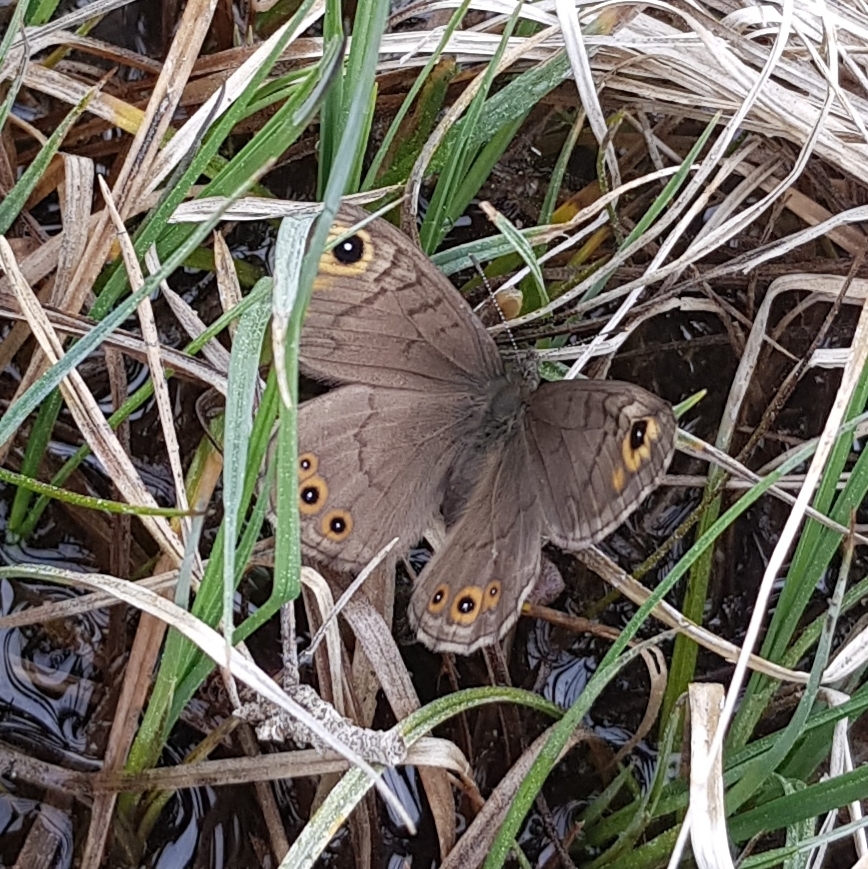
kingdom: Animalia
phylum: Arthropoda
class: Insecta
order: Lepidoptera
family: Nymphalidae
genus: Pararge
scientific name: Pararge petropolitana
